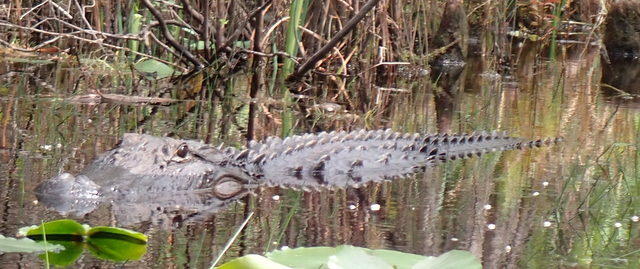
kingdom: Animalia
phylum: Chordata
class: Crocodylia
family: Alligatoridae
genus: Alligator
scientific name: Alligator mississippiensis
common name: American alligator
